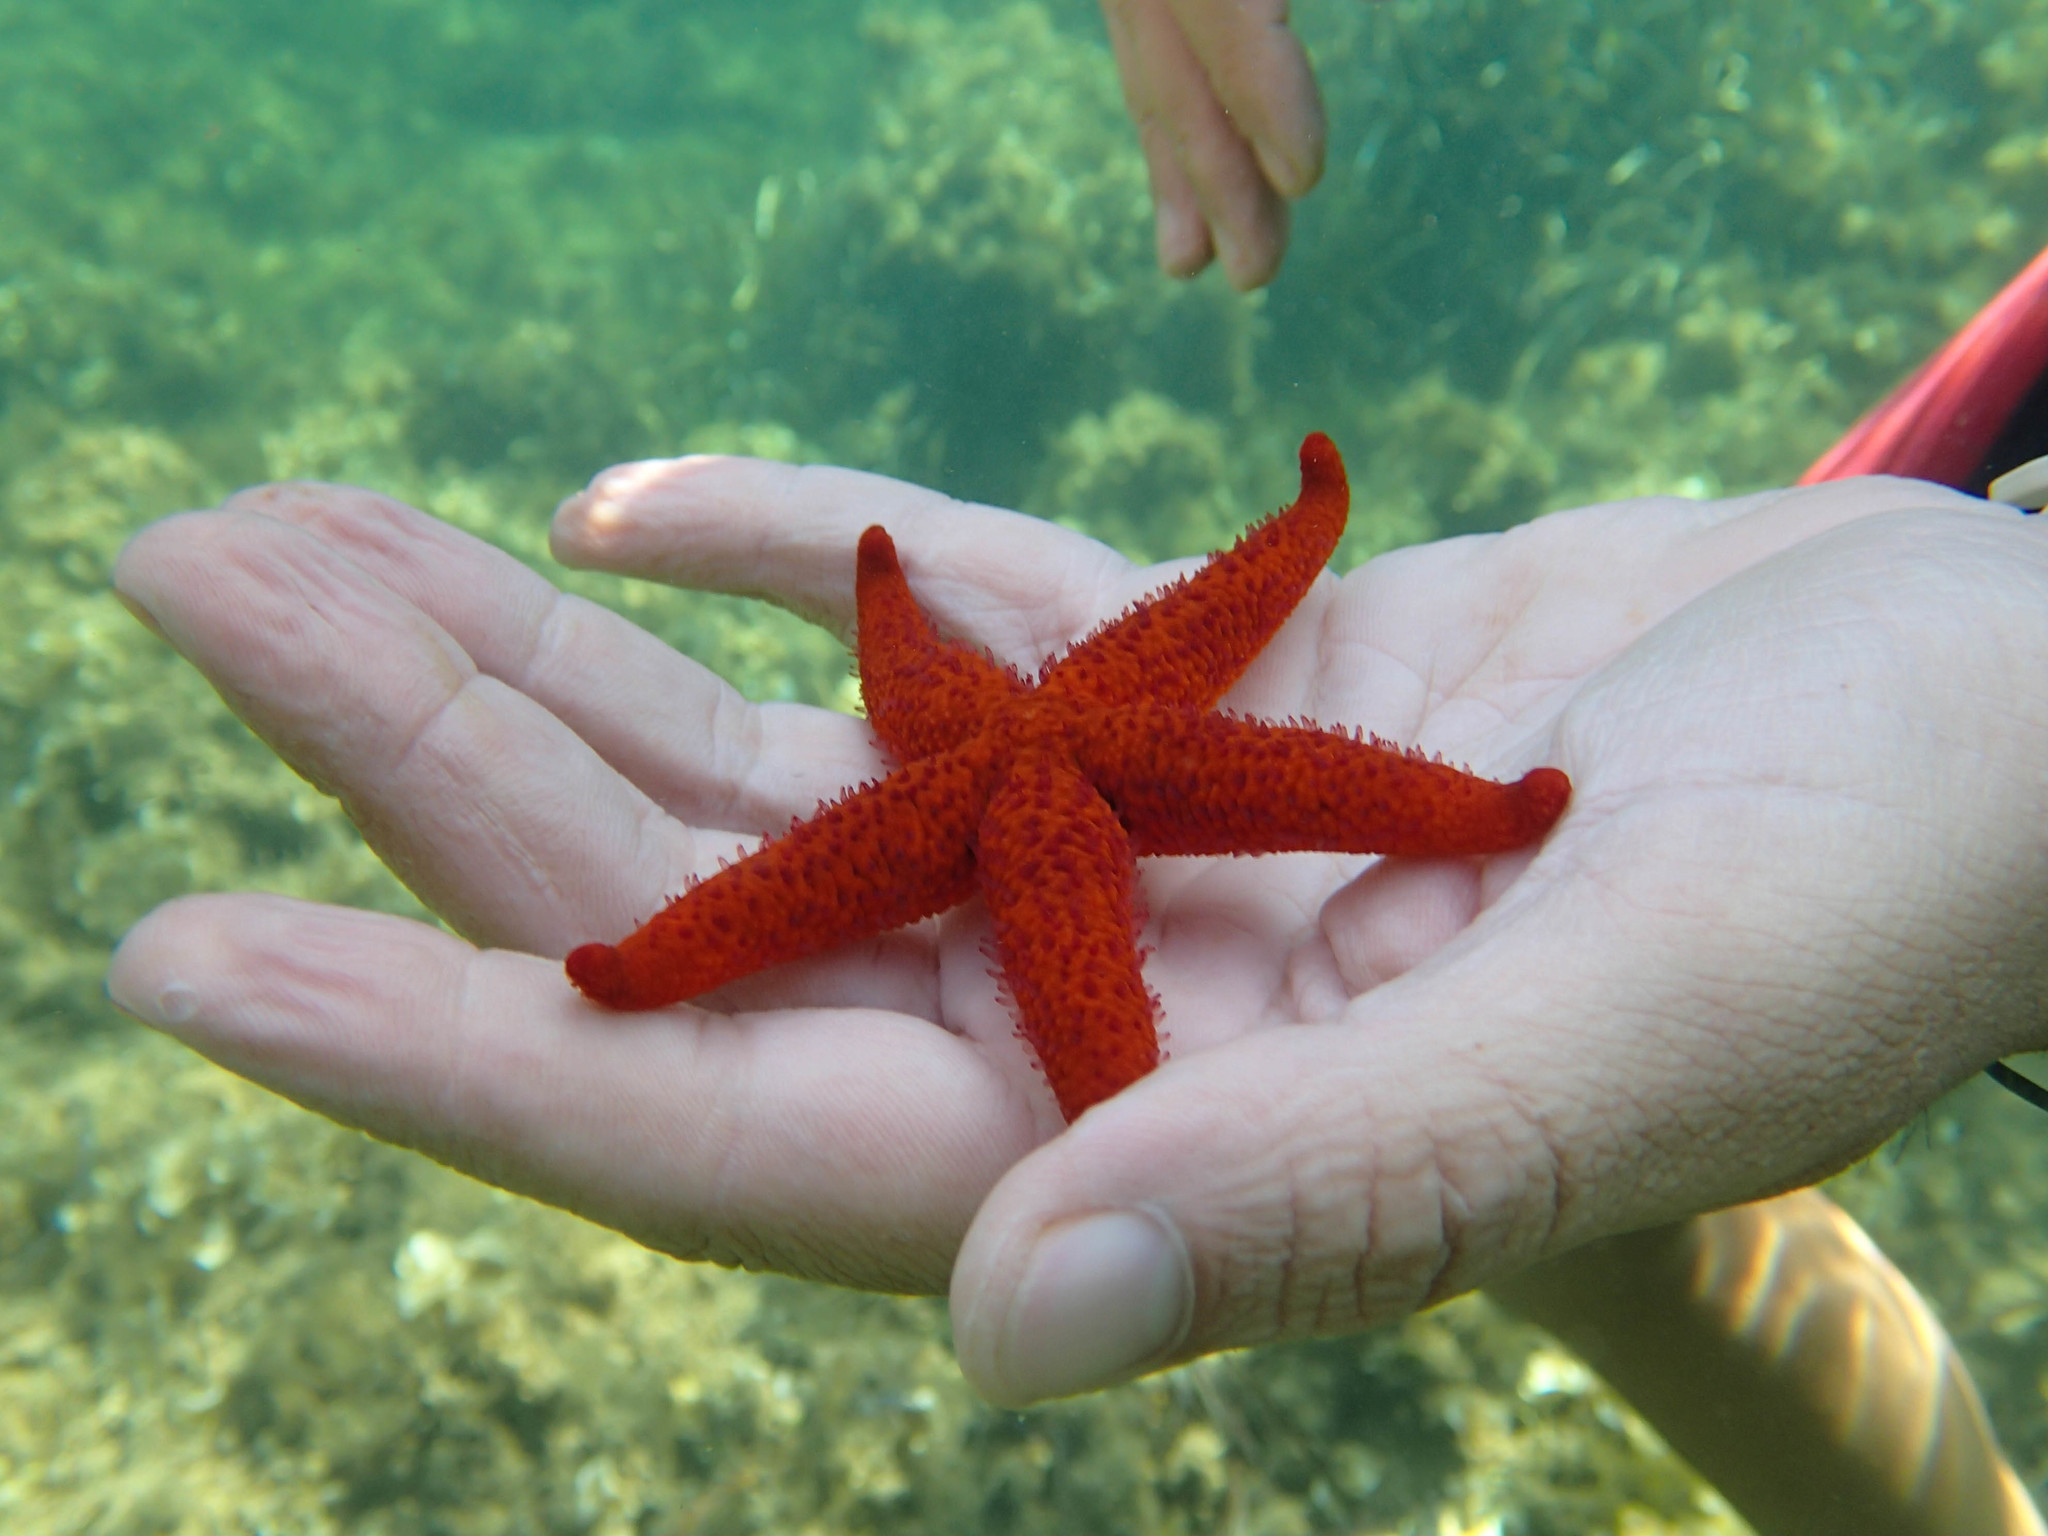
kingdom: Animalia
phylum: Echinodermata
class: Asteroidea
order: Spinulosida
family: Echinasteridae
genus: Echinaster
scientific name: Echinaster sepositus
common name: Red starfish
